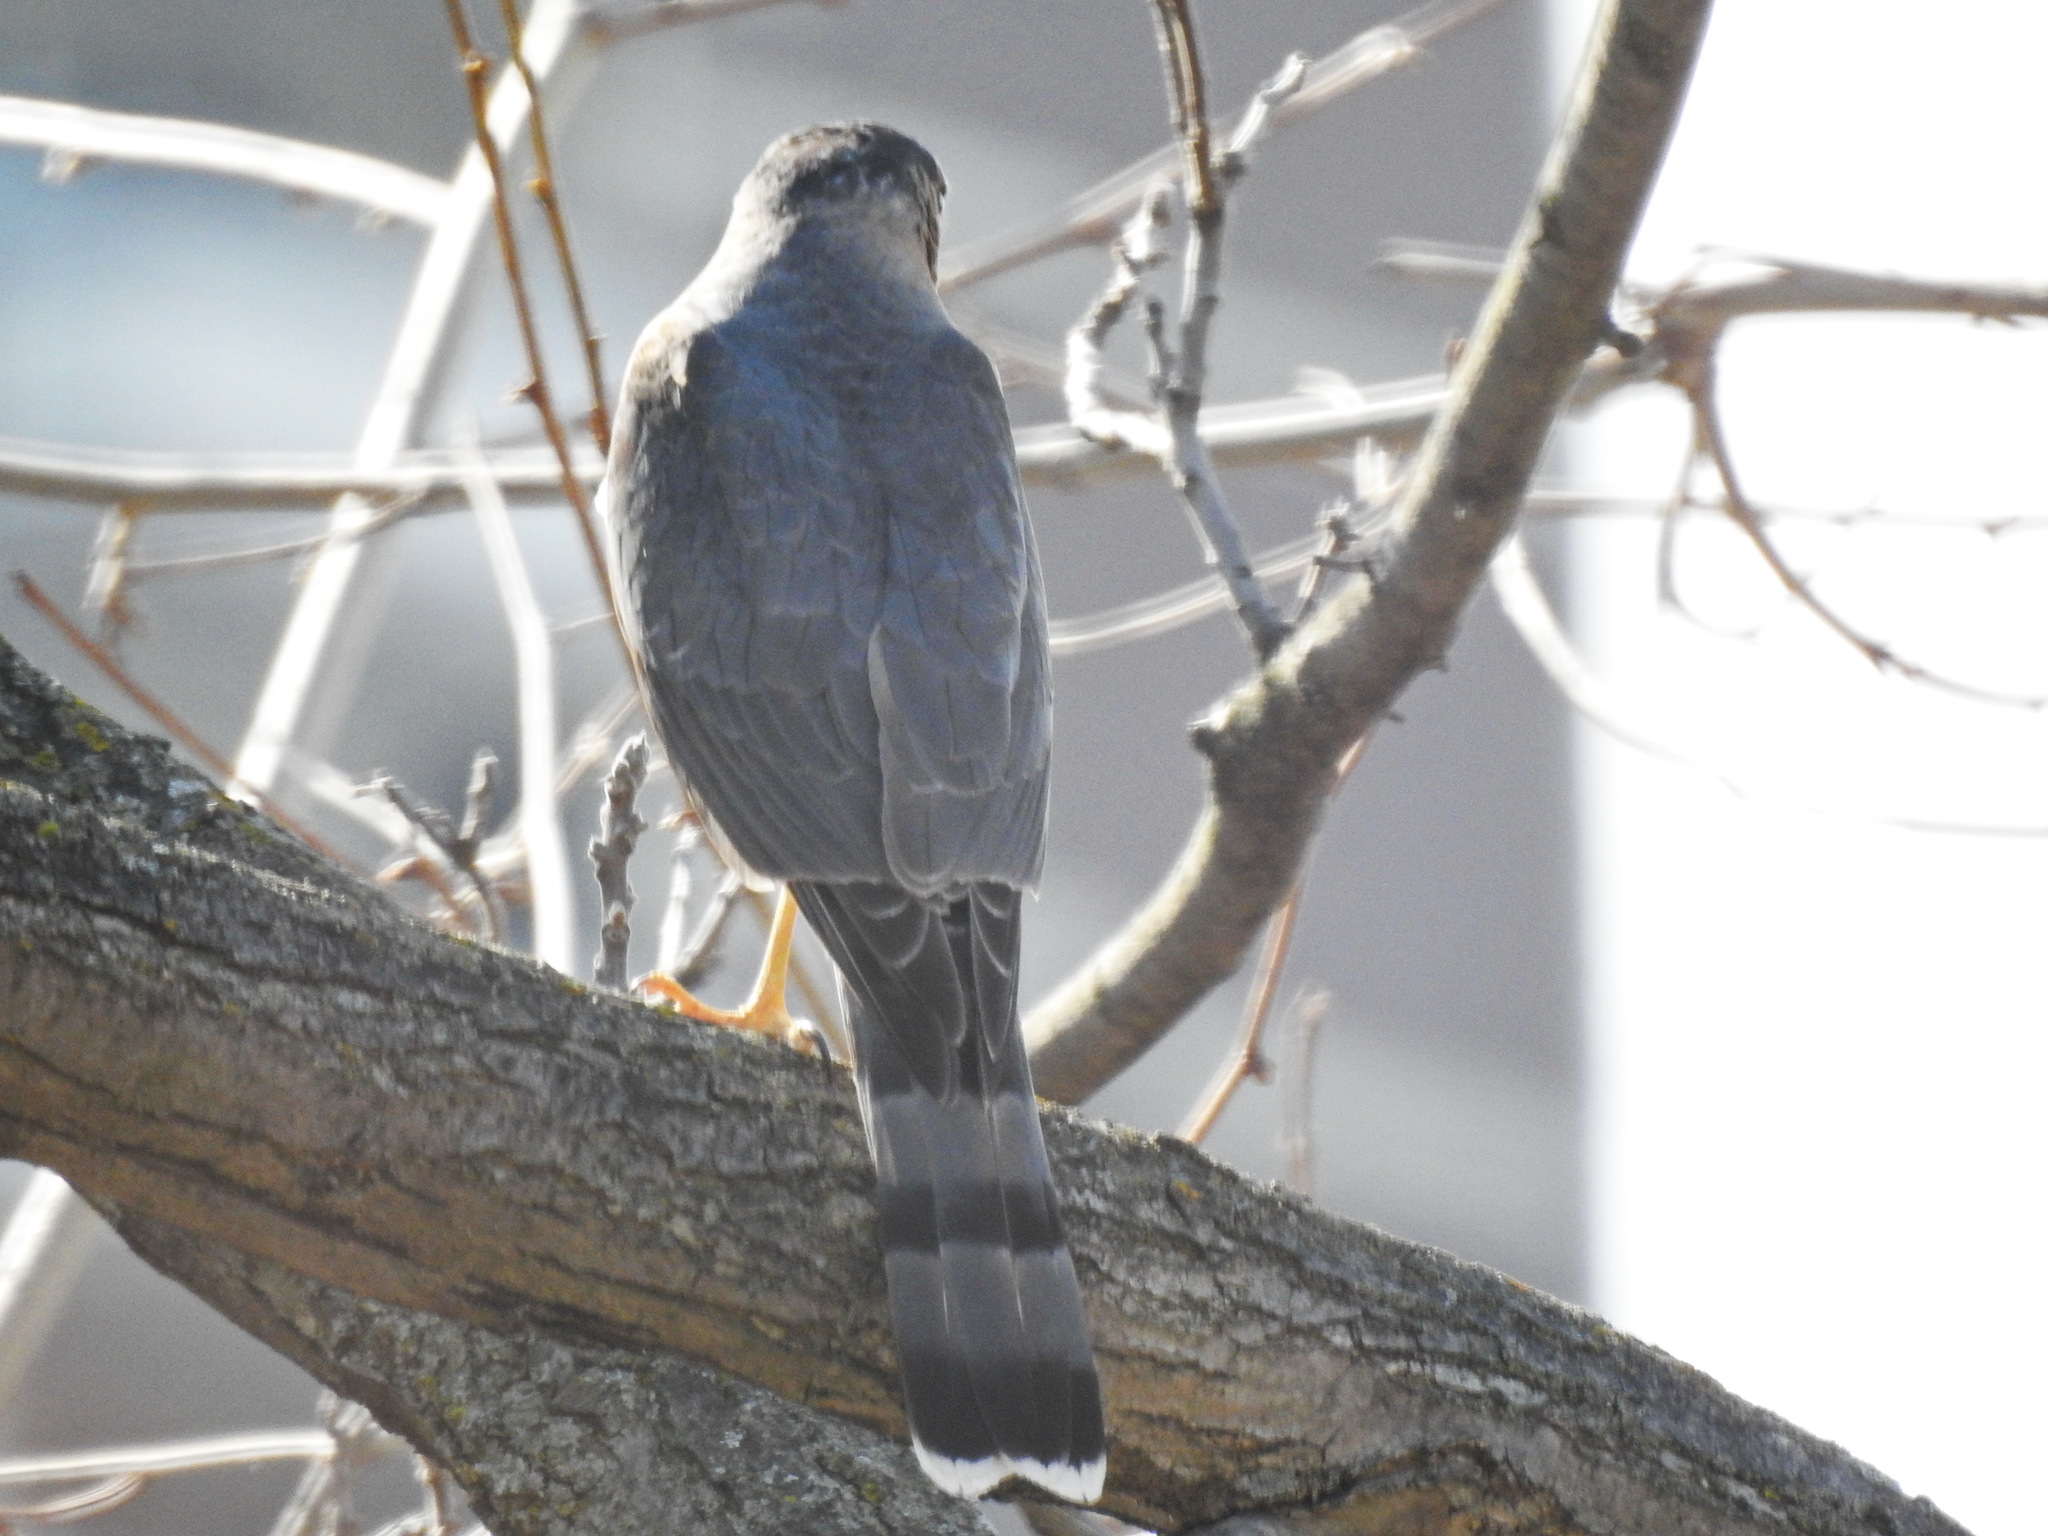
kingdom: Animalia
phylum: Chordata
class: Aves
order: Accipitriformes
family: Accipitridae
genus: Accipiter
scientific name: Accipiter cooperii
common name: Cooper's hawk
